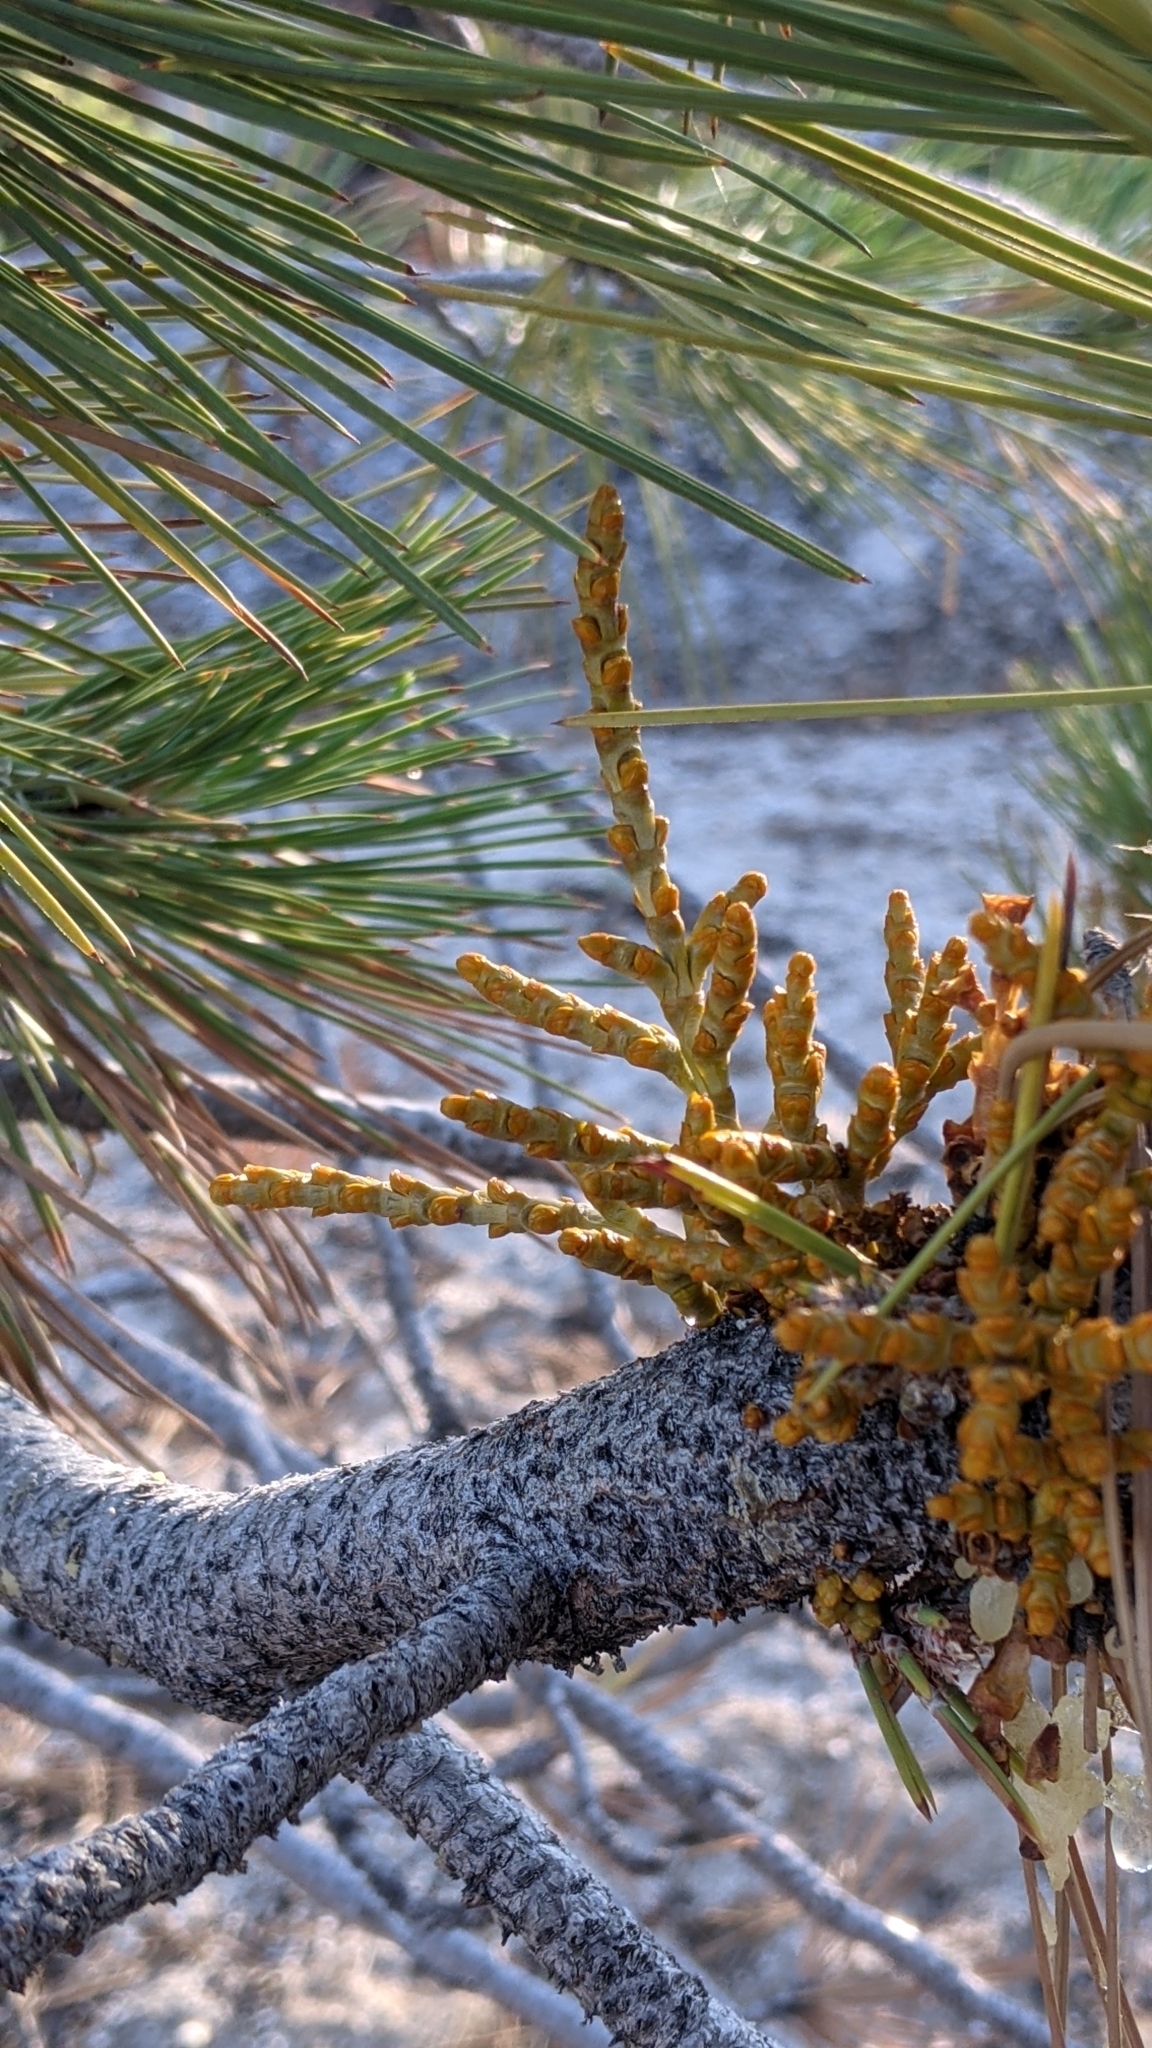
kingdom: Plantae
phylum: Tracheophyta
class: Magnoliopsida
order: Santalales
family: Viscaceae
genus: Arceuthobium
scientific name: Arceuthobium campylopodum
